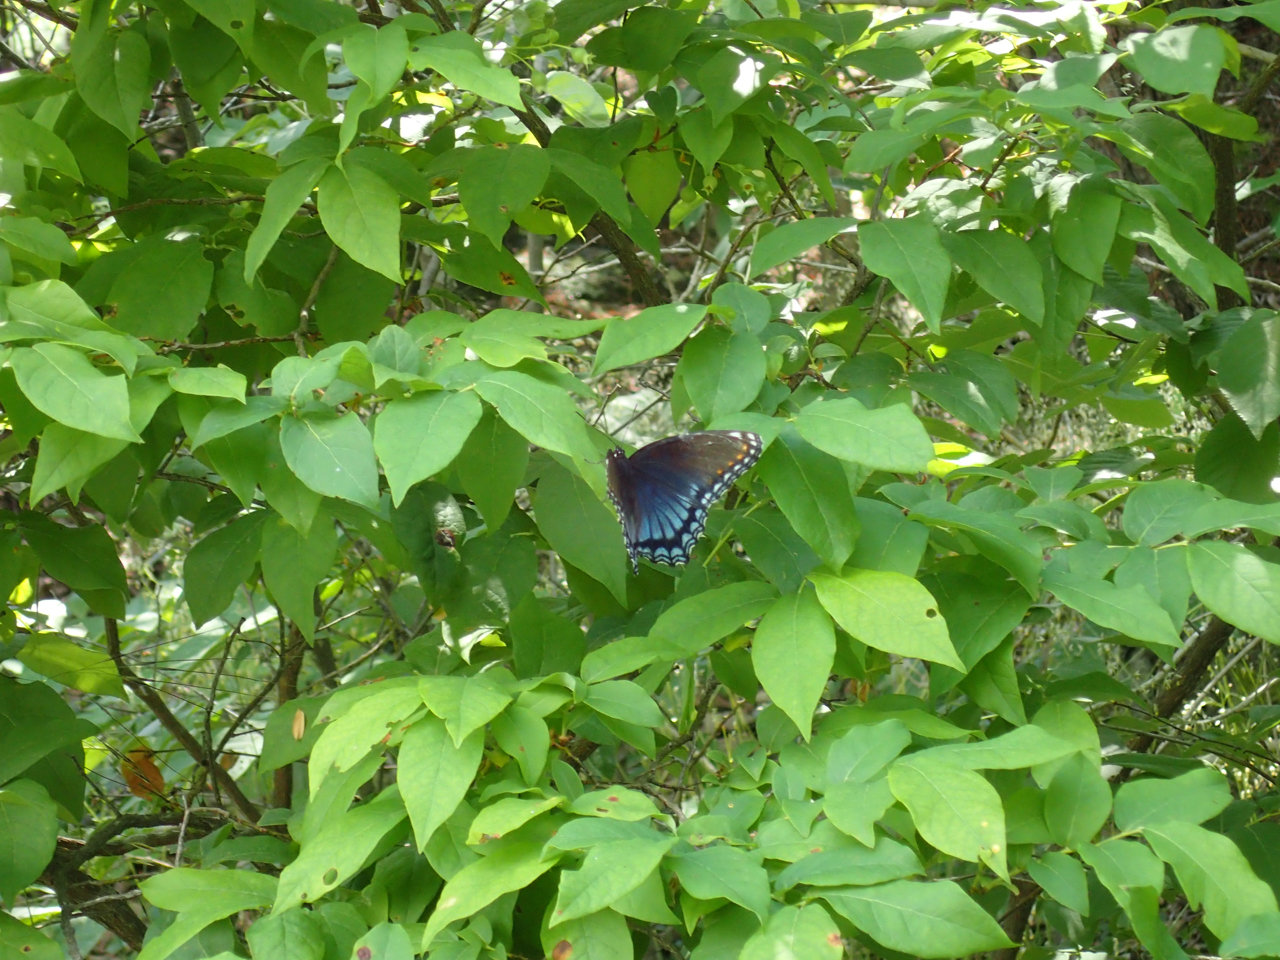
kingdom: Animalia
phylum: Arthropoda
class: Insecta
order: Lepidoptera
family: Nymphalidae
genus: Limenitis
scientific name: Limenitis astyanax
